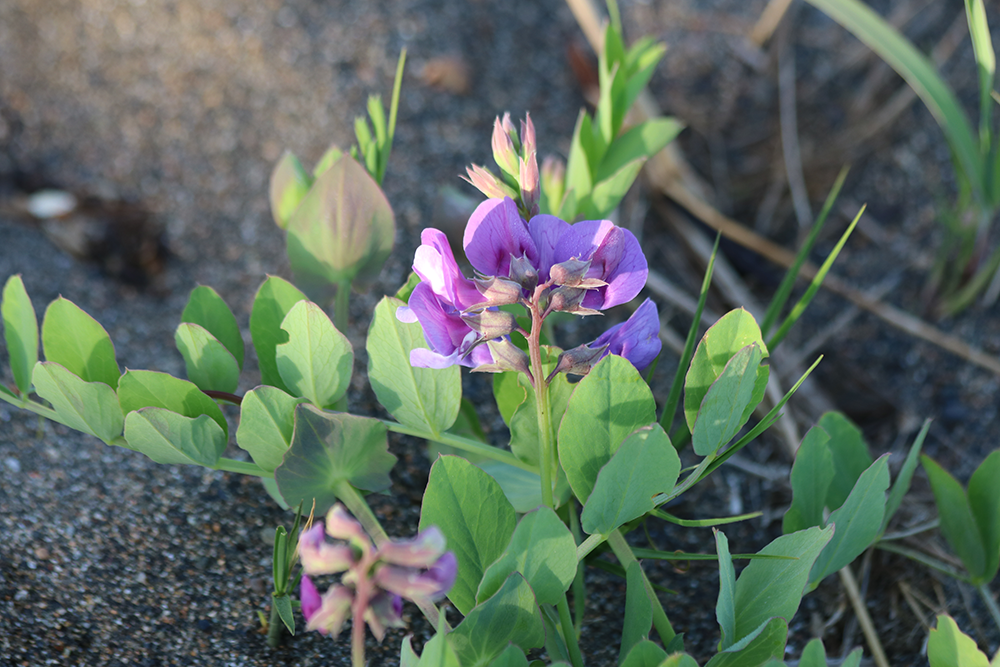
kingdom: Plantae
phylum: Tracheophyta
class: Magnoliopsida
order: Fabales
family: Fabaceae
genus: Lathyrus
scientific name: Lathyrus japonicus
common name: Sea pea
